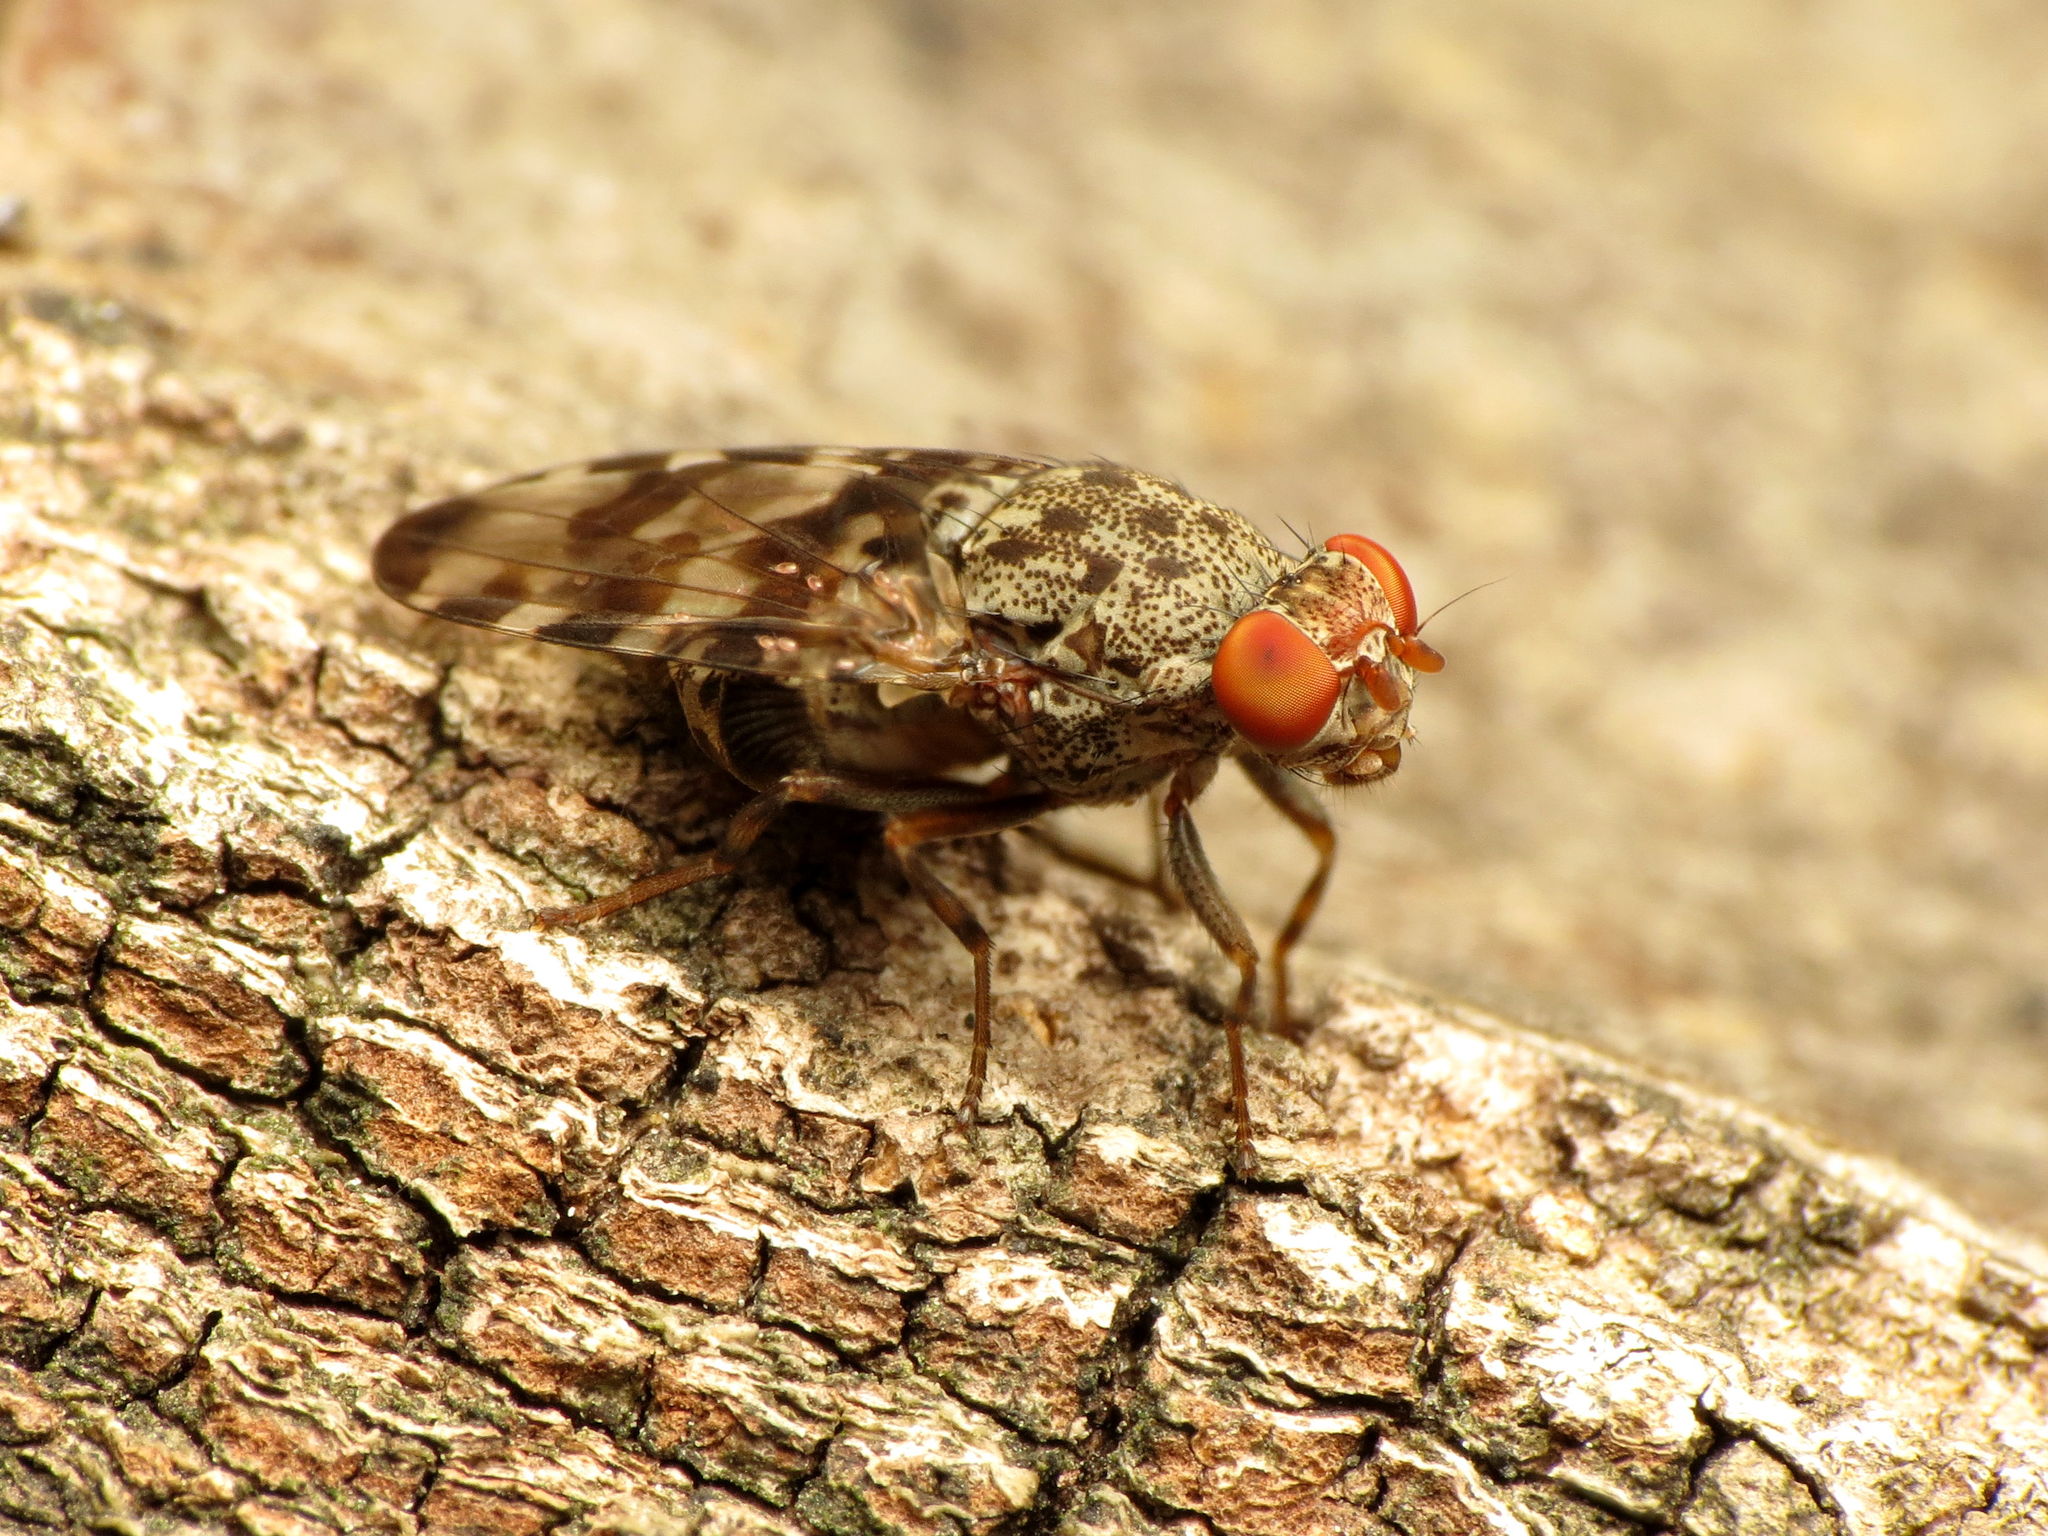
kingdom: Animalia
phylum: Arthropoda
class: Insecta
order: Diptera
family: Ulidiidae
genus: Pseudotephritis
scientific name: Pseudotephritis approximata
